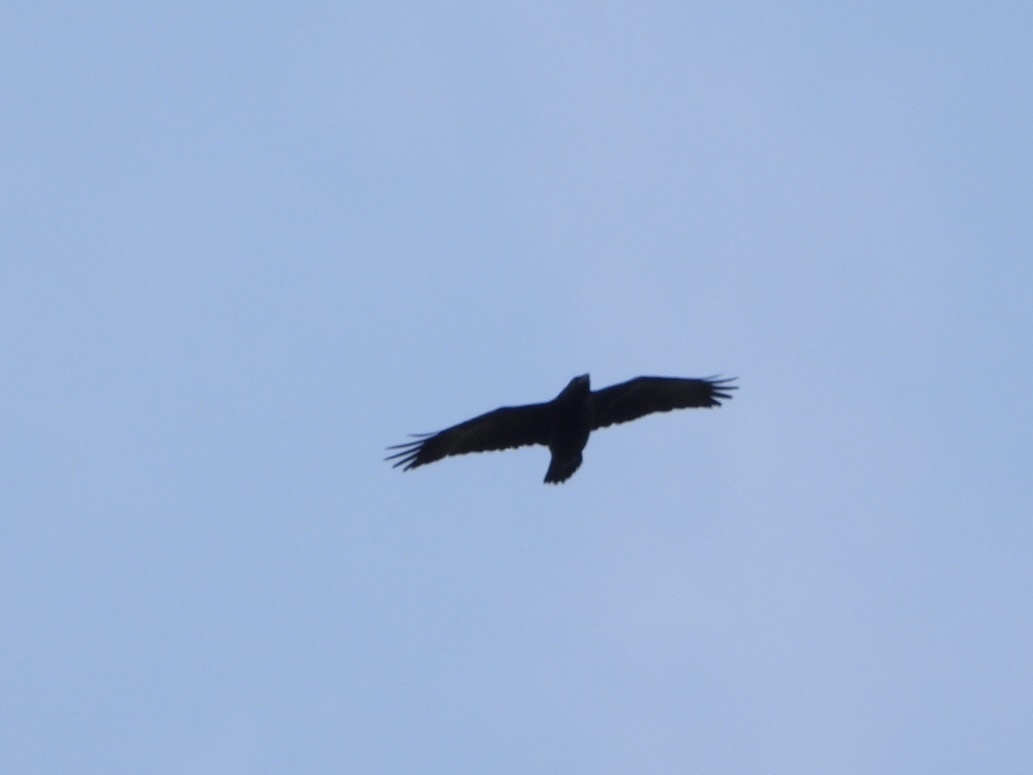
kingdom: Animalia
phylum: Chordata
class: Aves
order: Passeriformes
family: Corvidae
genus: Corvus
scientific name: Corvus corax
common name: Common raven
